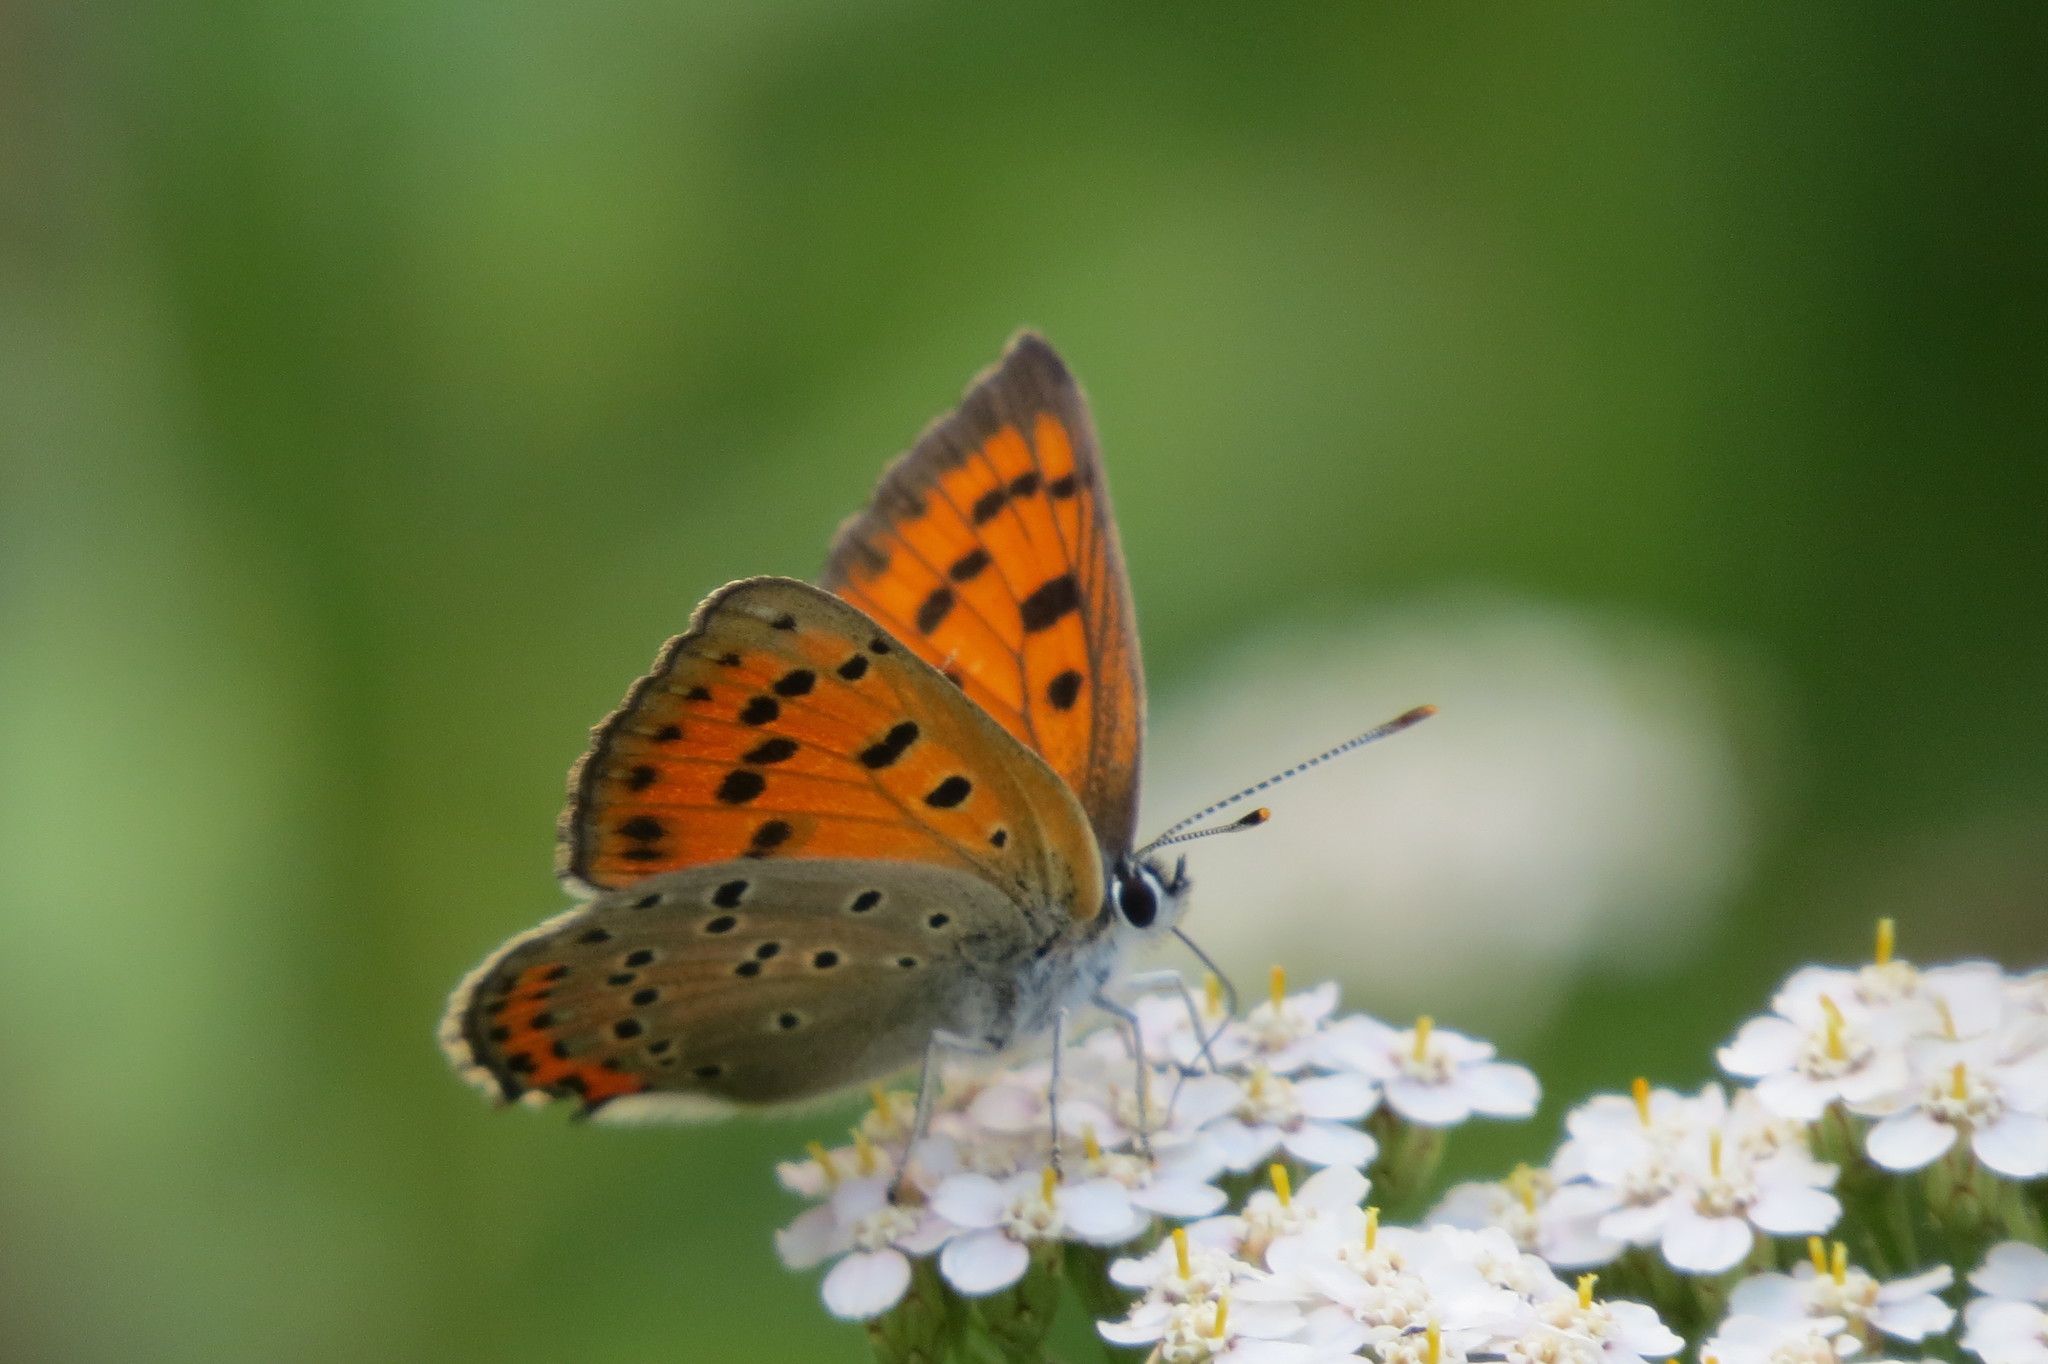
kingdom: Animalia
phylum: Arthropoda
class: Insecta
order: Lepidoptera
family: Lycaenidae
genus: Lycaena
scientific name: Lycaena alciphron
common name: Purple-shot copper
